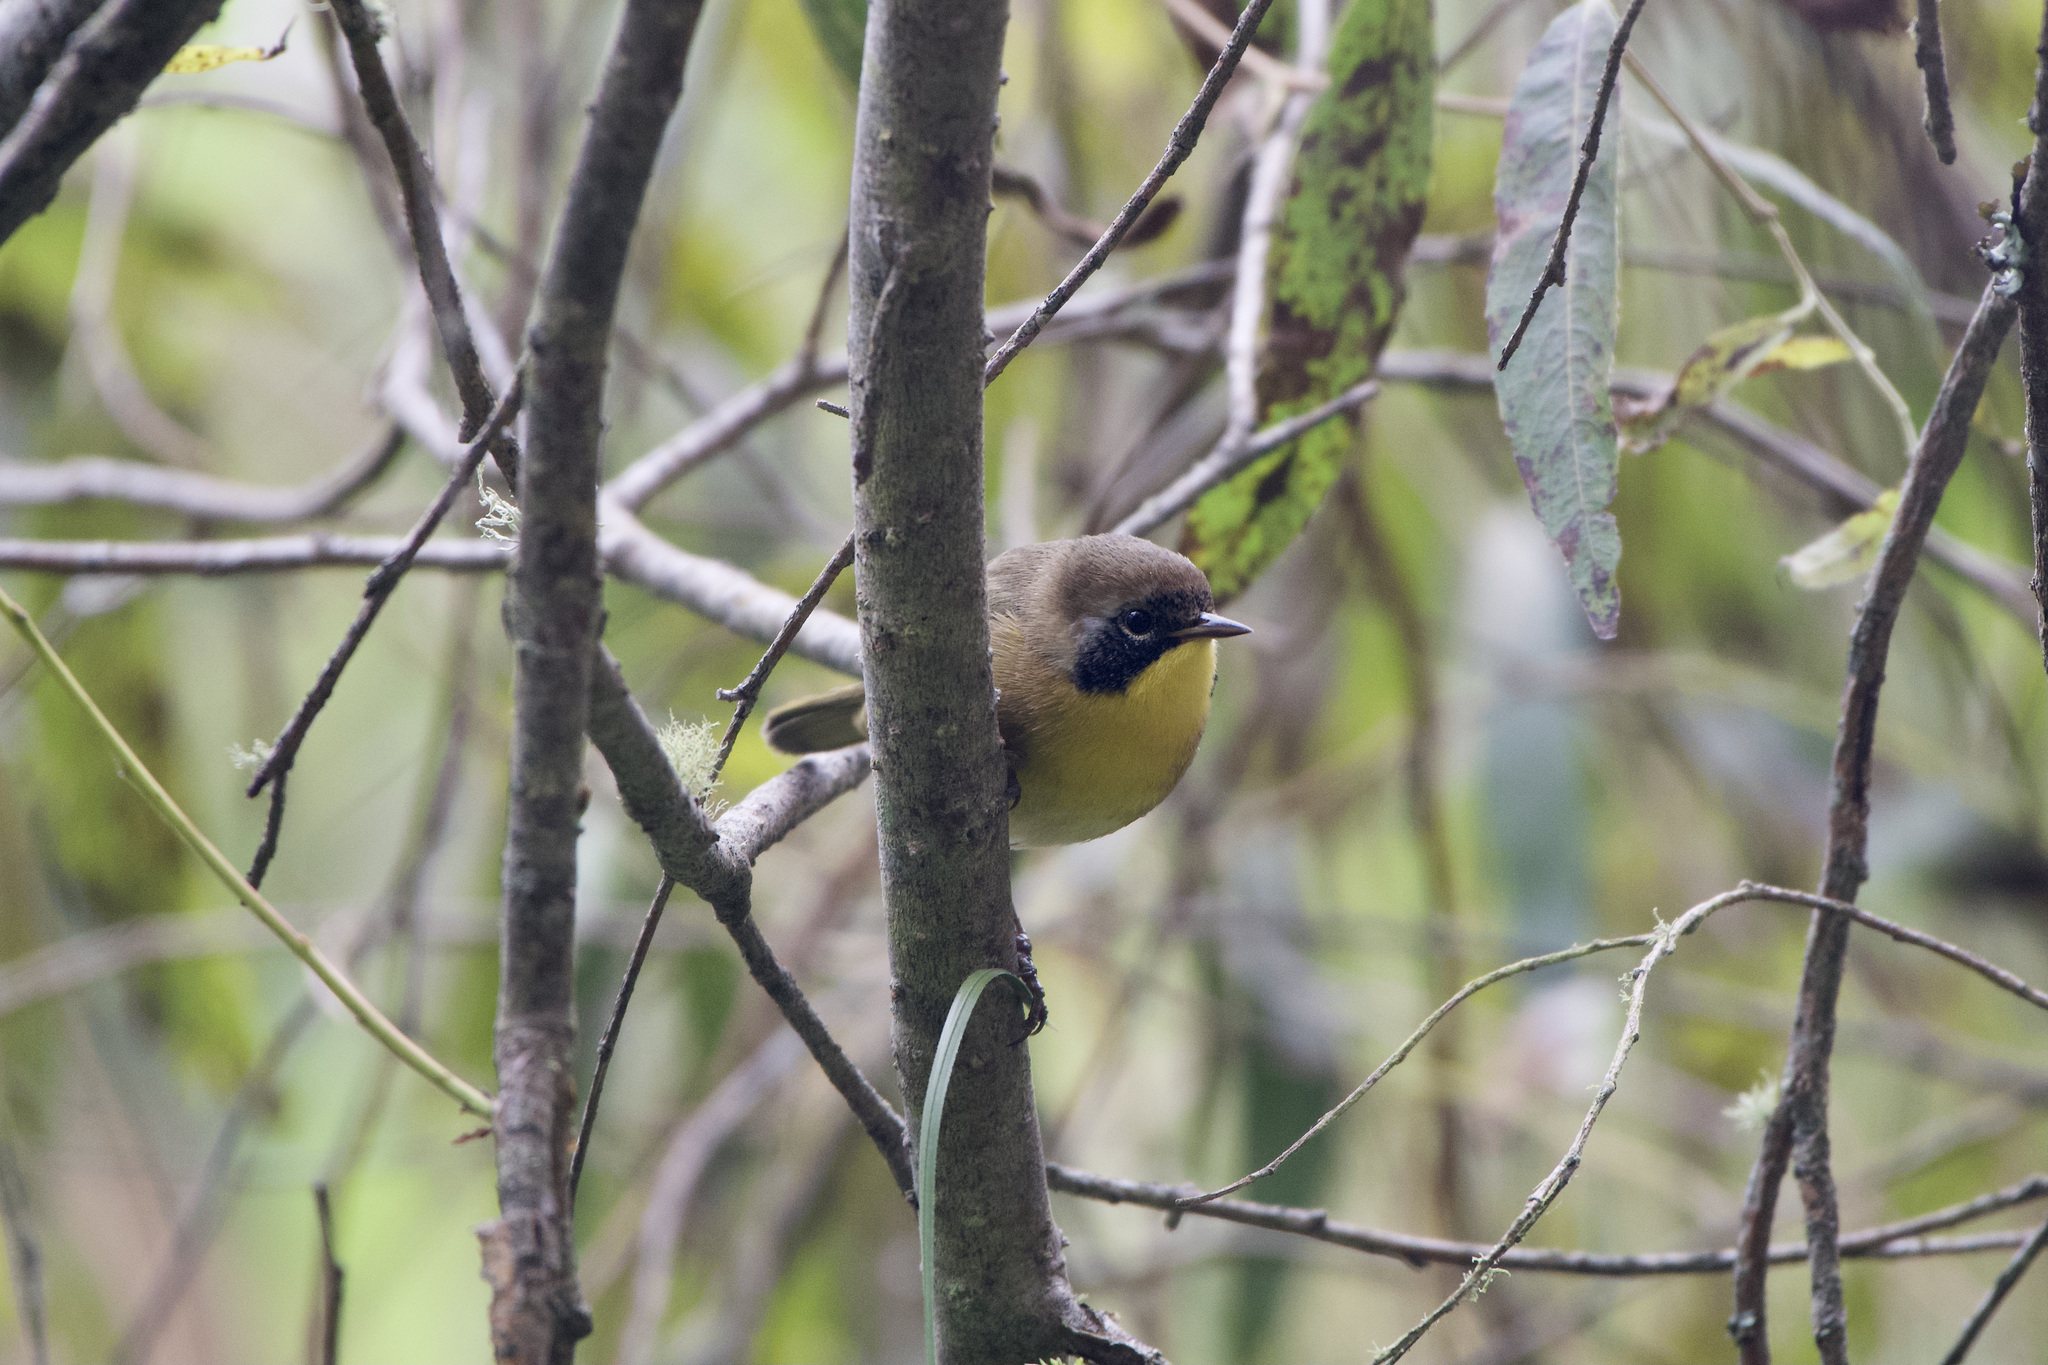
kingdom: Animalia
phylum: Chordata
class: Aves
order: Passeriformes
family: Parulidae
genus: Geothlypis
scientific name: Geothlypis trichas
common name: Common yellowthroat
